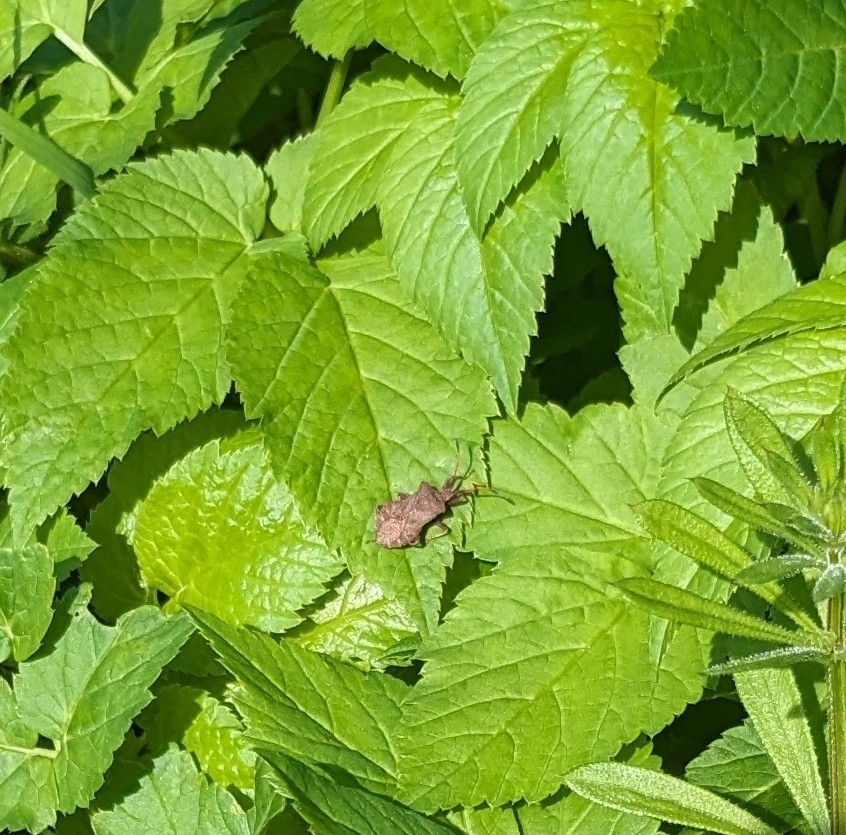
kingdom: Animalia
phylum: Arthropoda
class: Insecta
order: Hemiptera
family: Coreidae
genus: Coreus
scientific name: Coreus marginatus
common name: Dock bug
